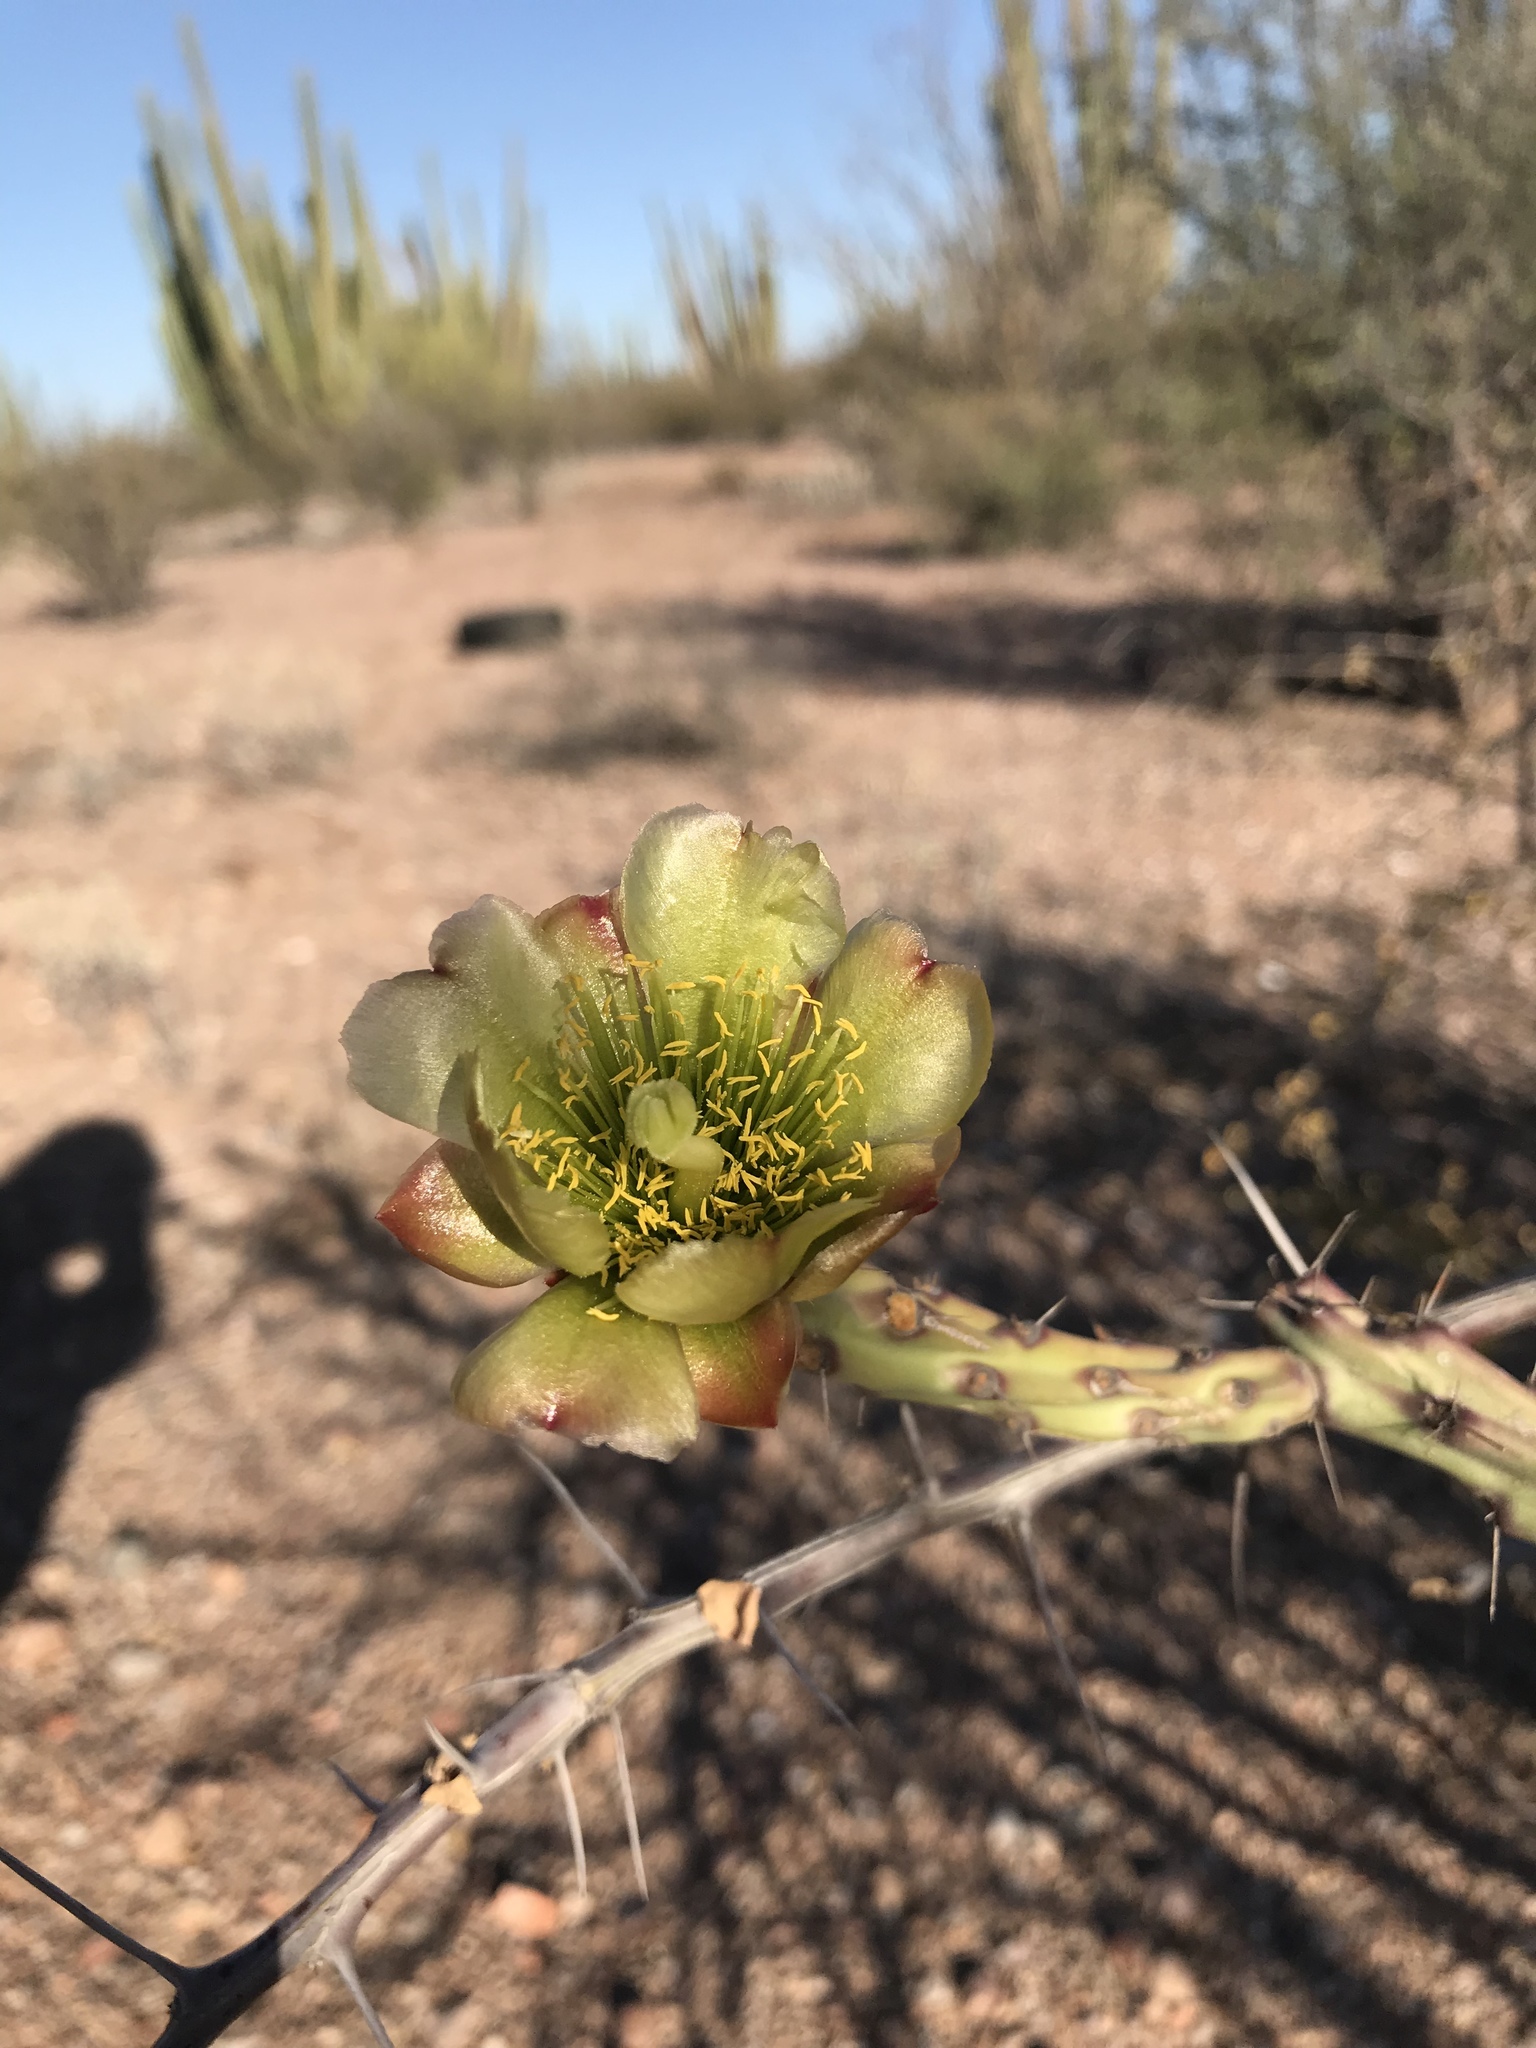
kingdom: Plantae
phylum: Tracheophyta
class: Magnoliopsida
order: Caryophyllales
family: Cactaceae
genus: Cylindropuntia
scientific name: Cylindropuntia thurberi
